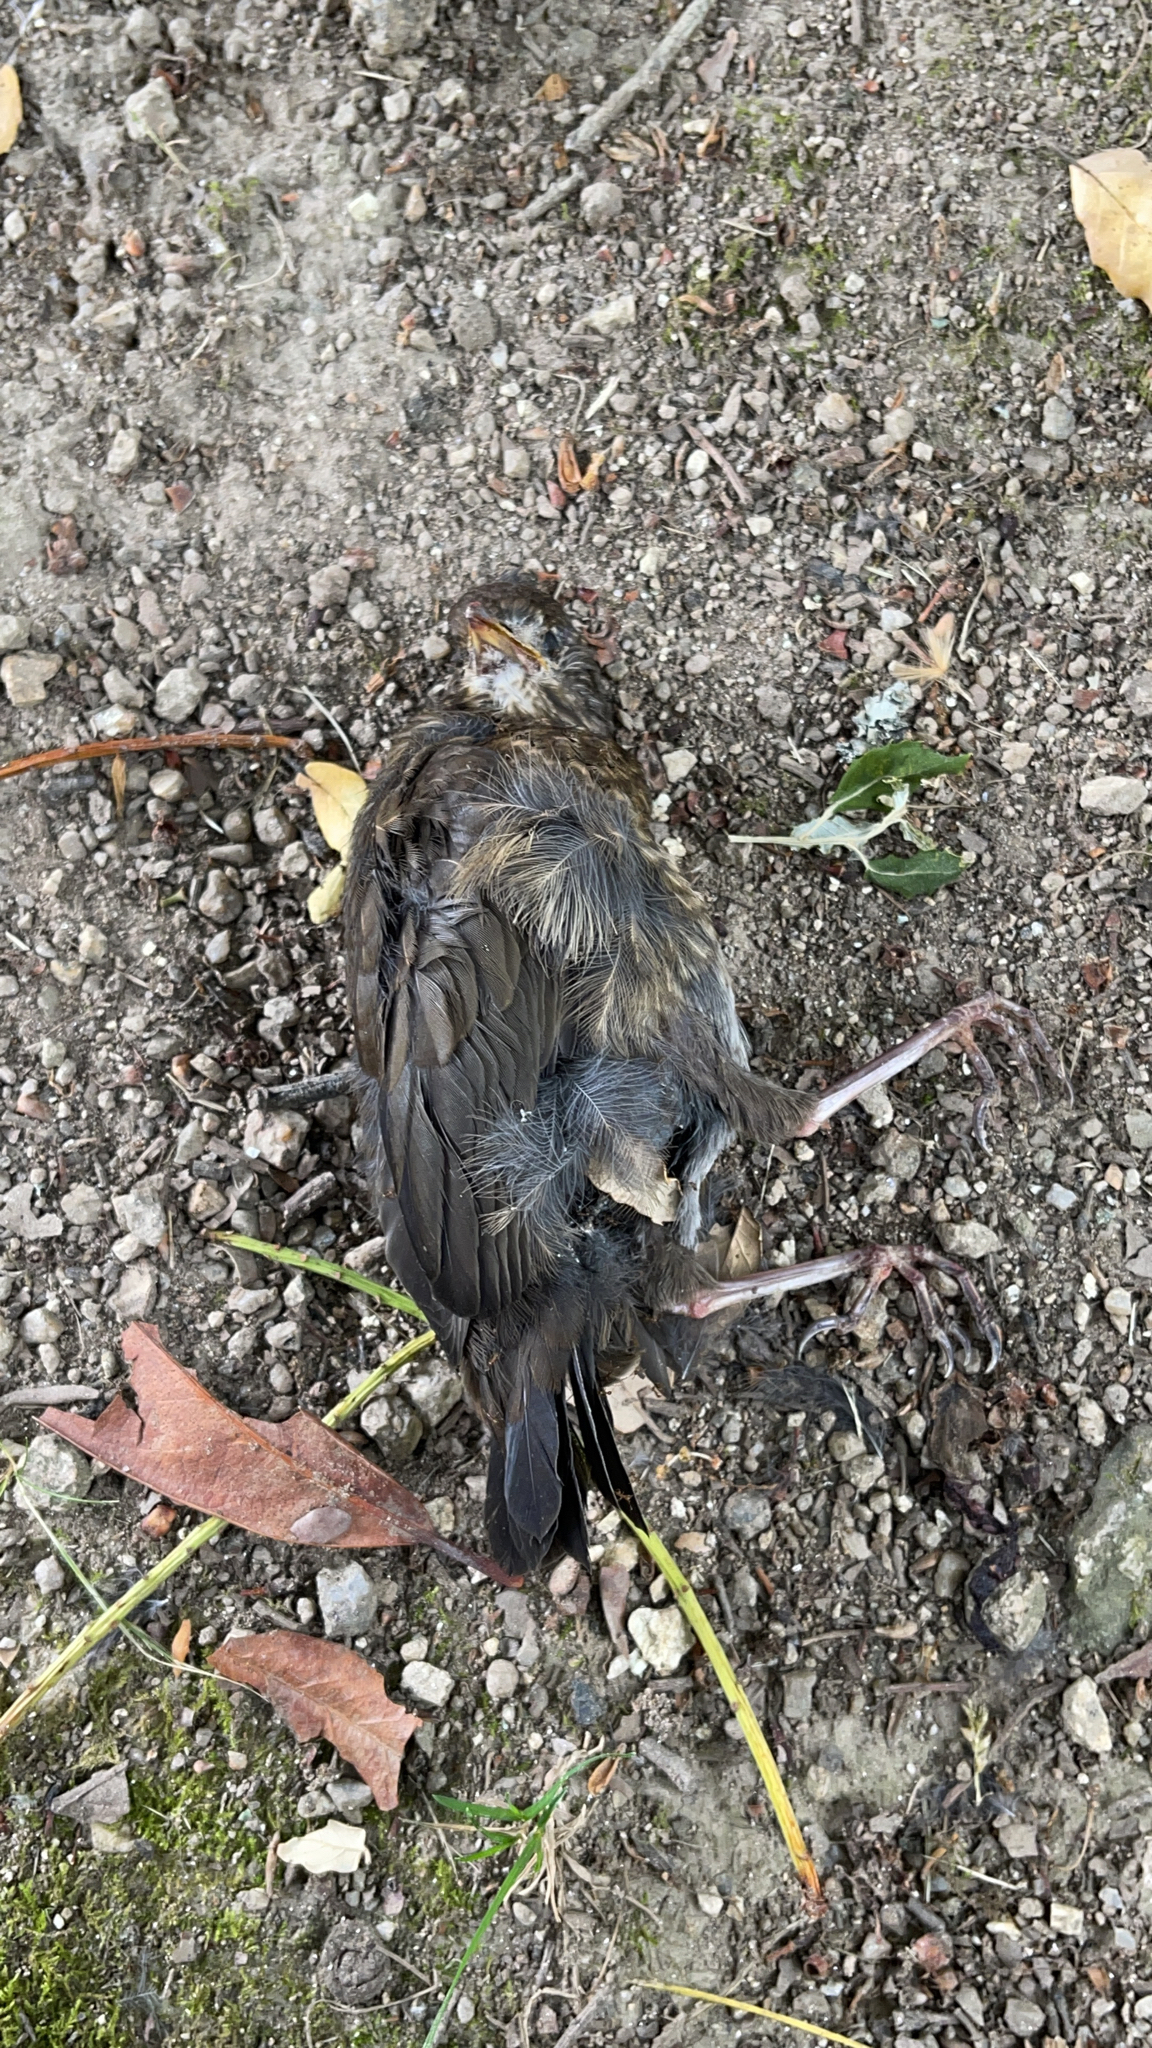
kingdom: Animalia
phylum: Chordata
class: Aves
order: Passeriformes
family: Turdidae
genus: Turdus
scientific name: Turdus merula
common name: Common blackbird
